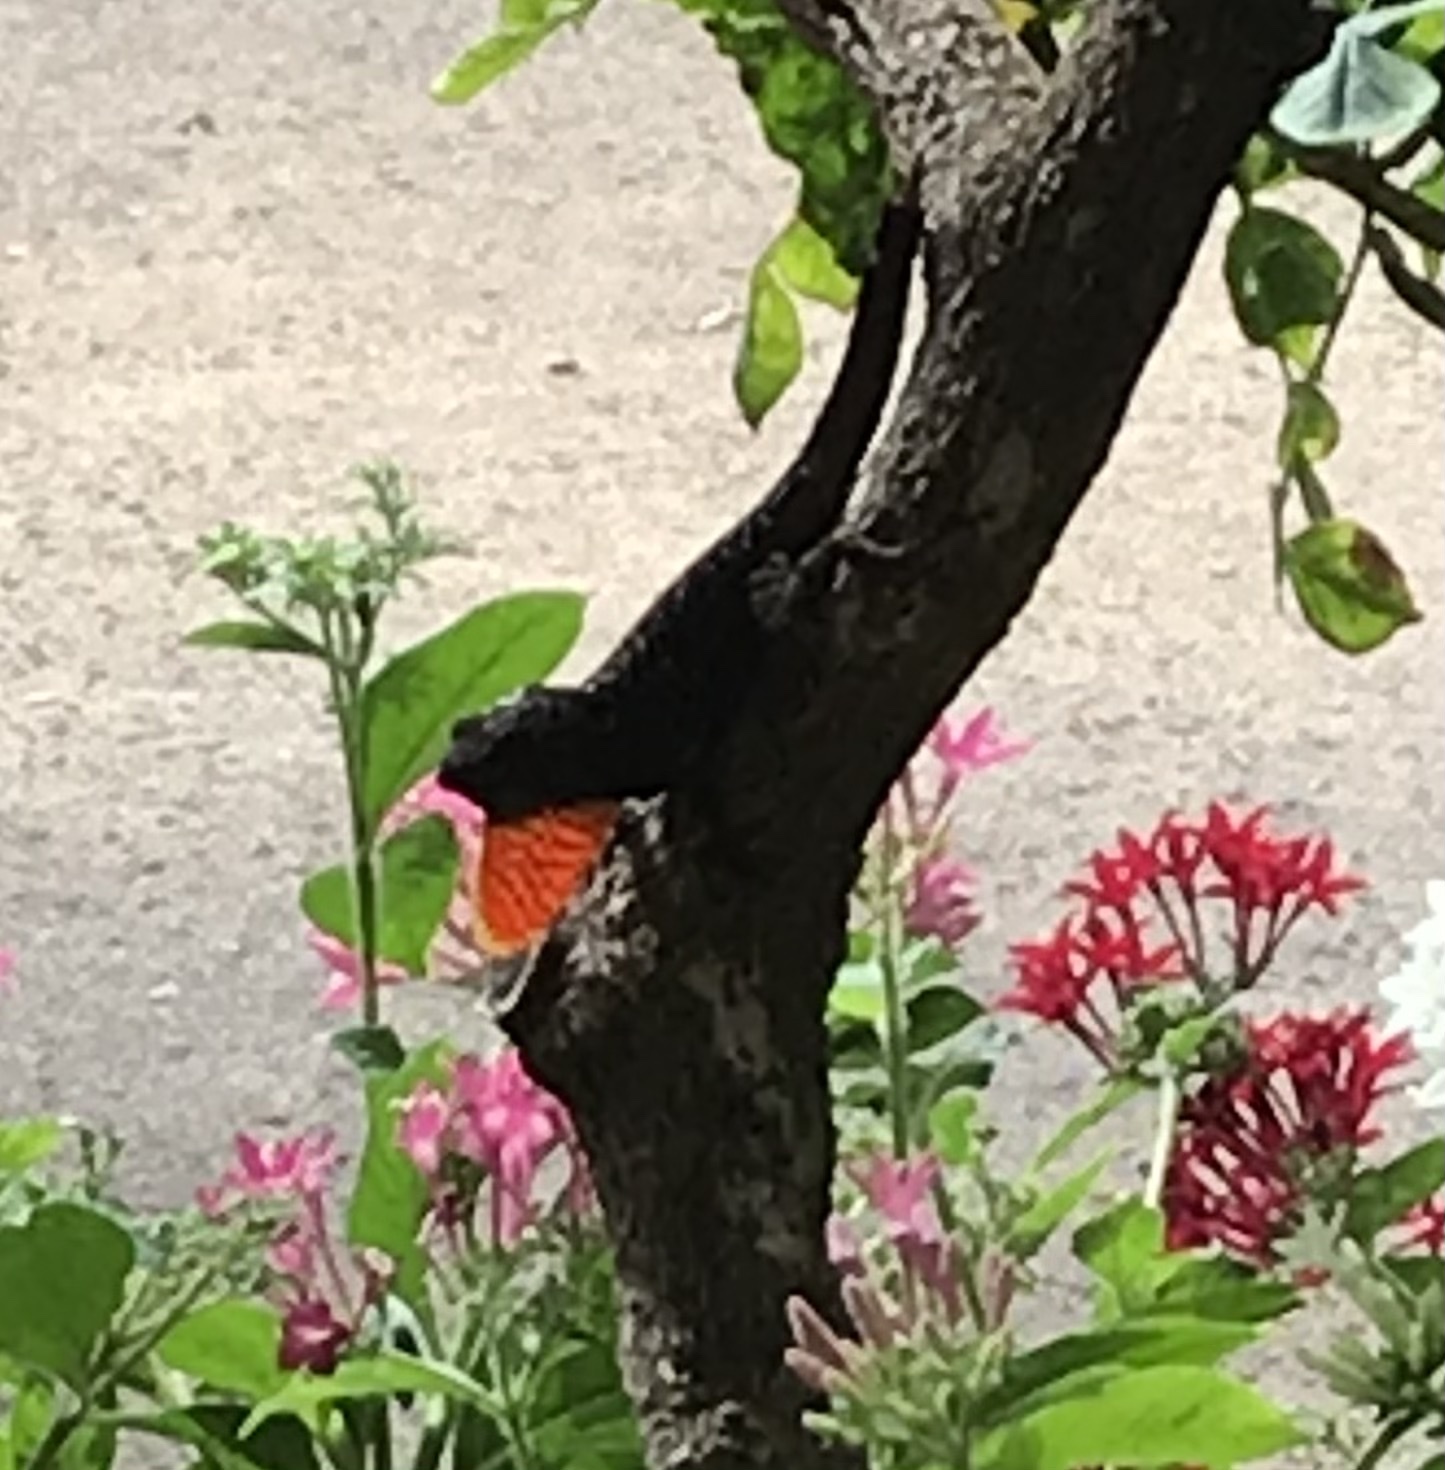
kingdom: Animalia
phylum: Chordata
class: Squamata
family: Dactyloidae
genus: Anolis
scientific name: Anolis sagrei
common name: Brown anole
